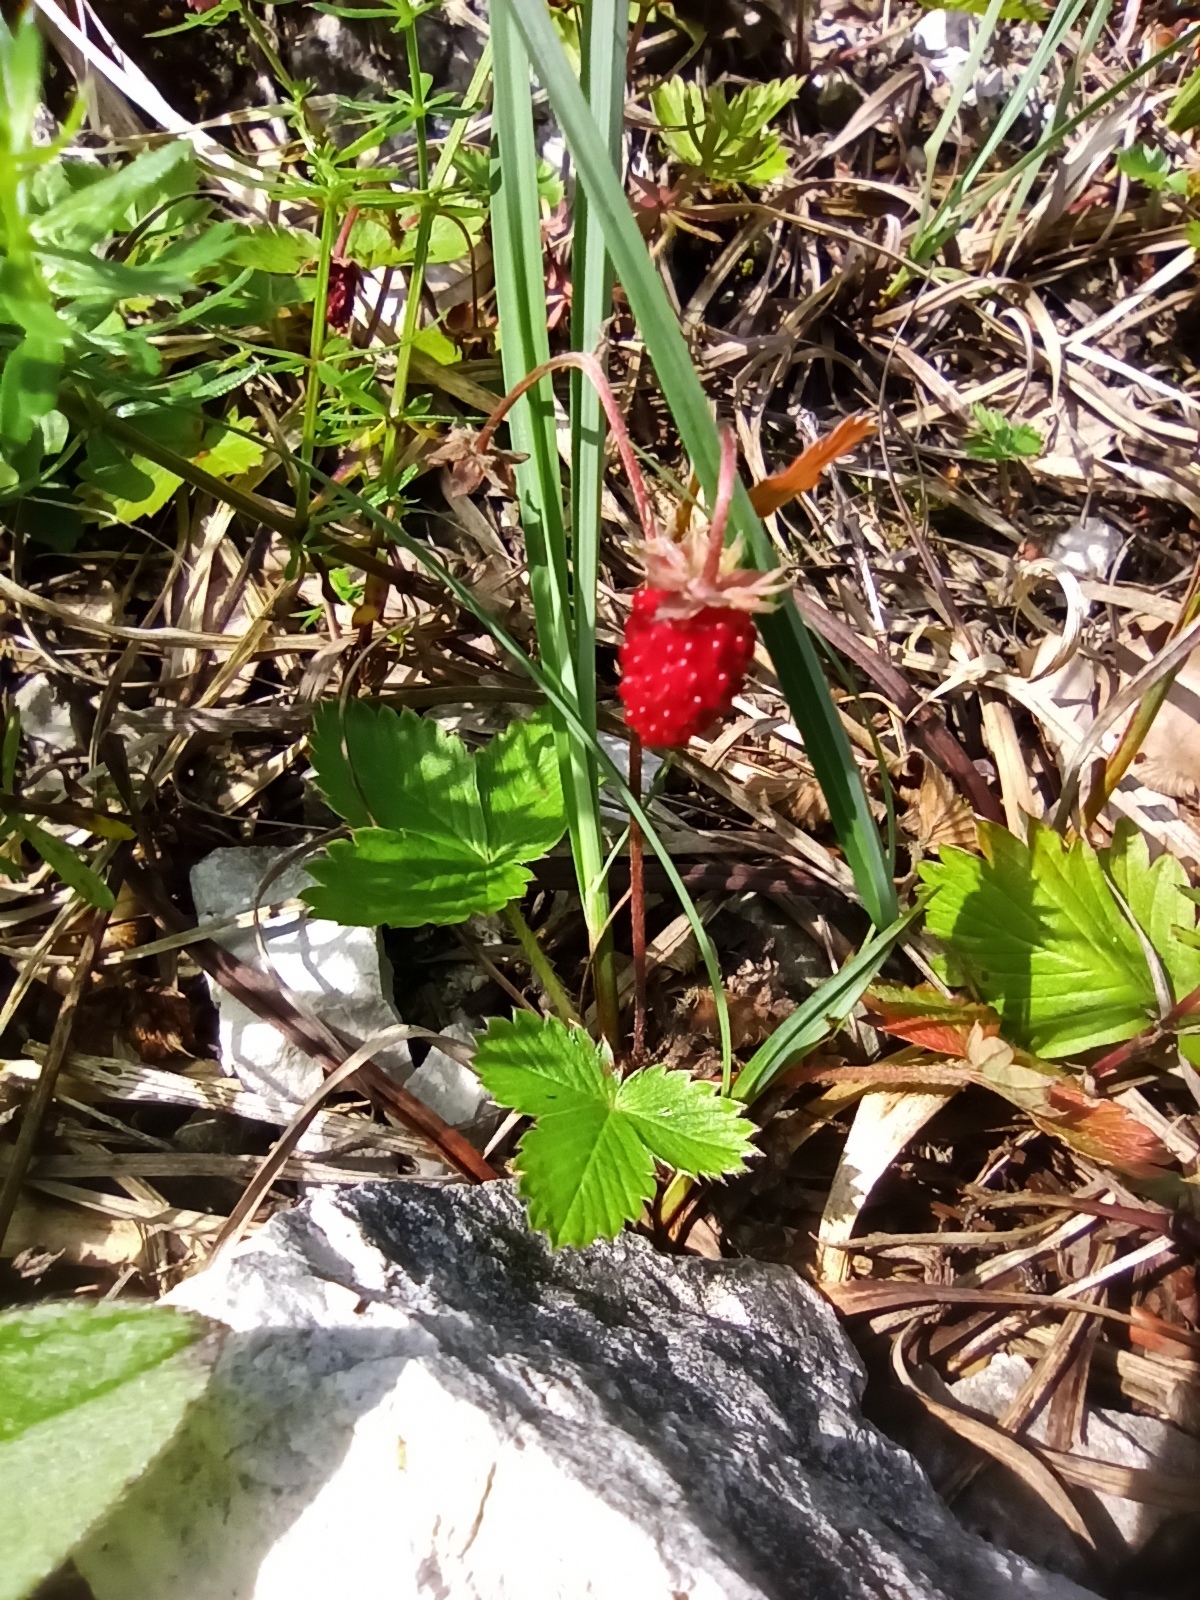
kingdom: Plantae
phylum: Tracheophyta
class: Magnoliopsida
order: Rosales
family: Rosaceae
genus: Fragaria
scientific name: Fragaria vesca
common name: Wild strawberry
